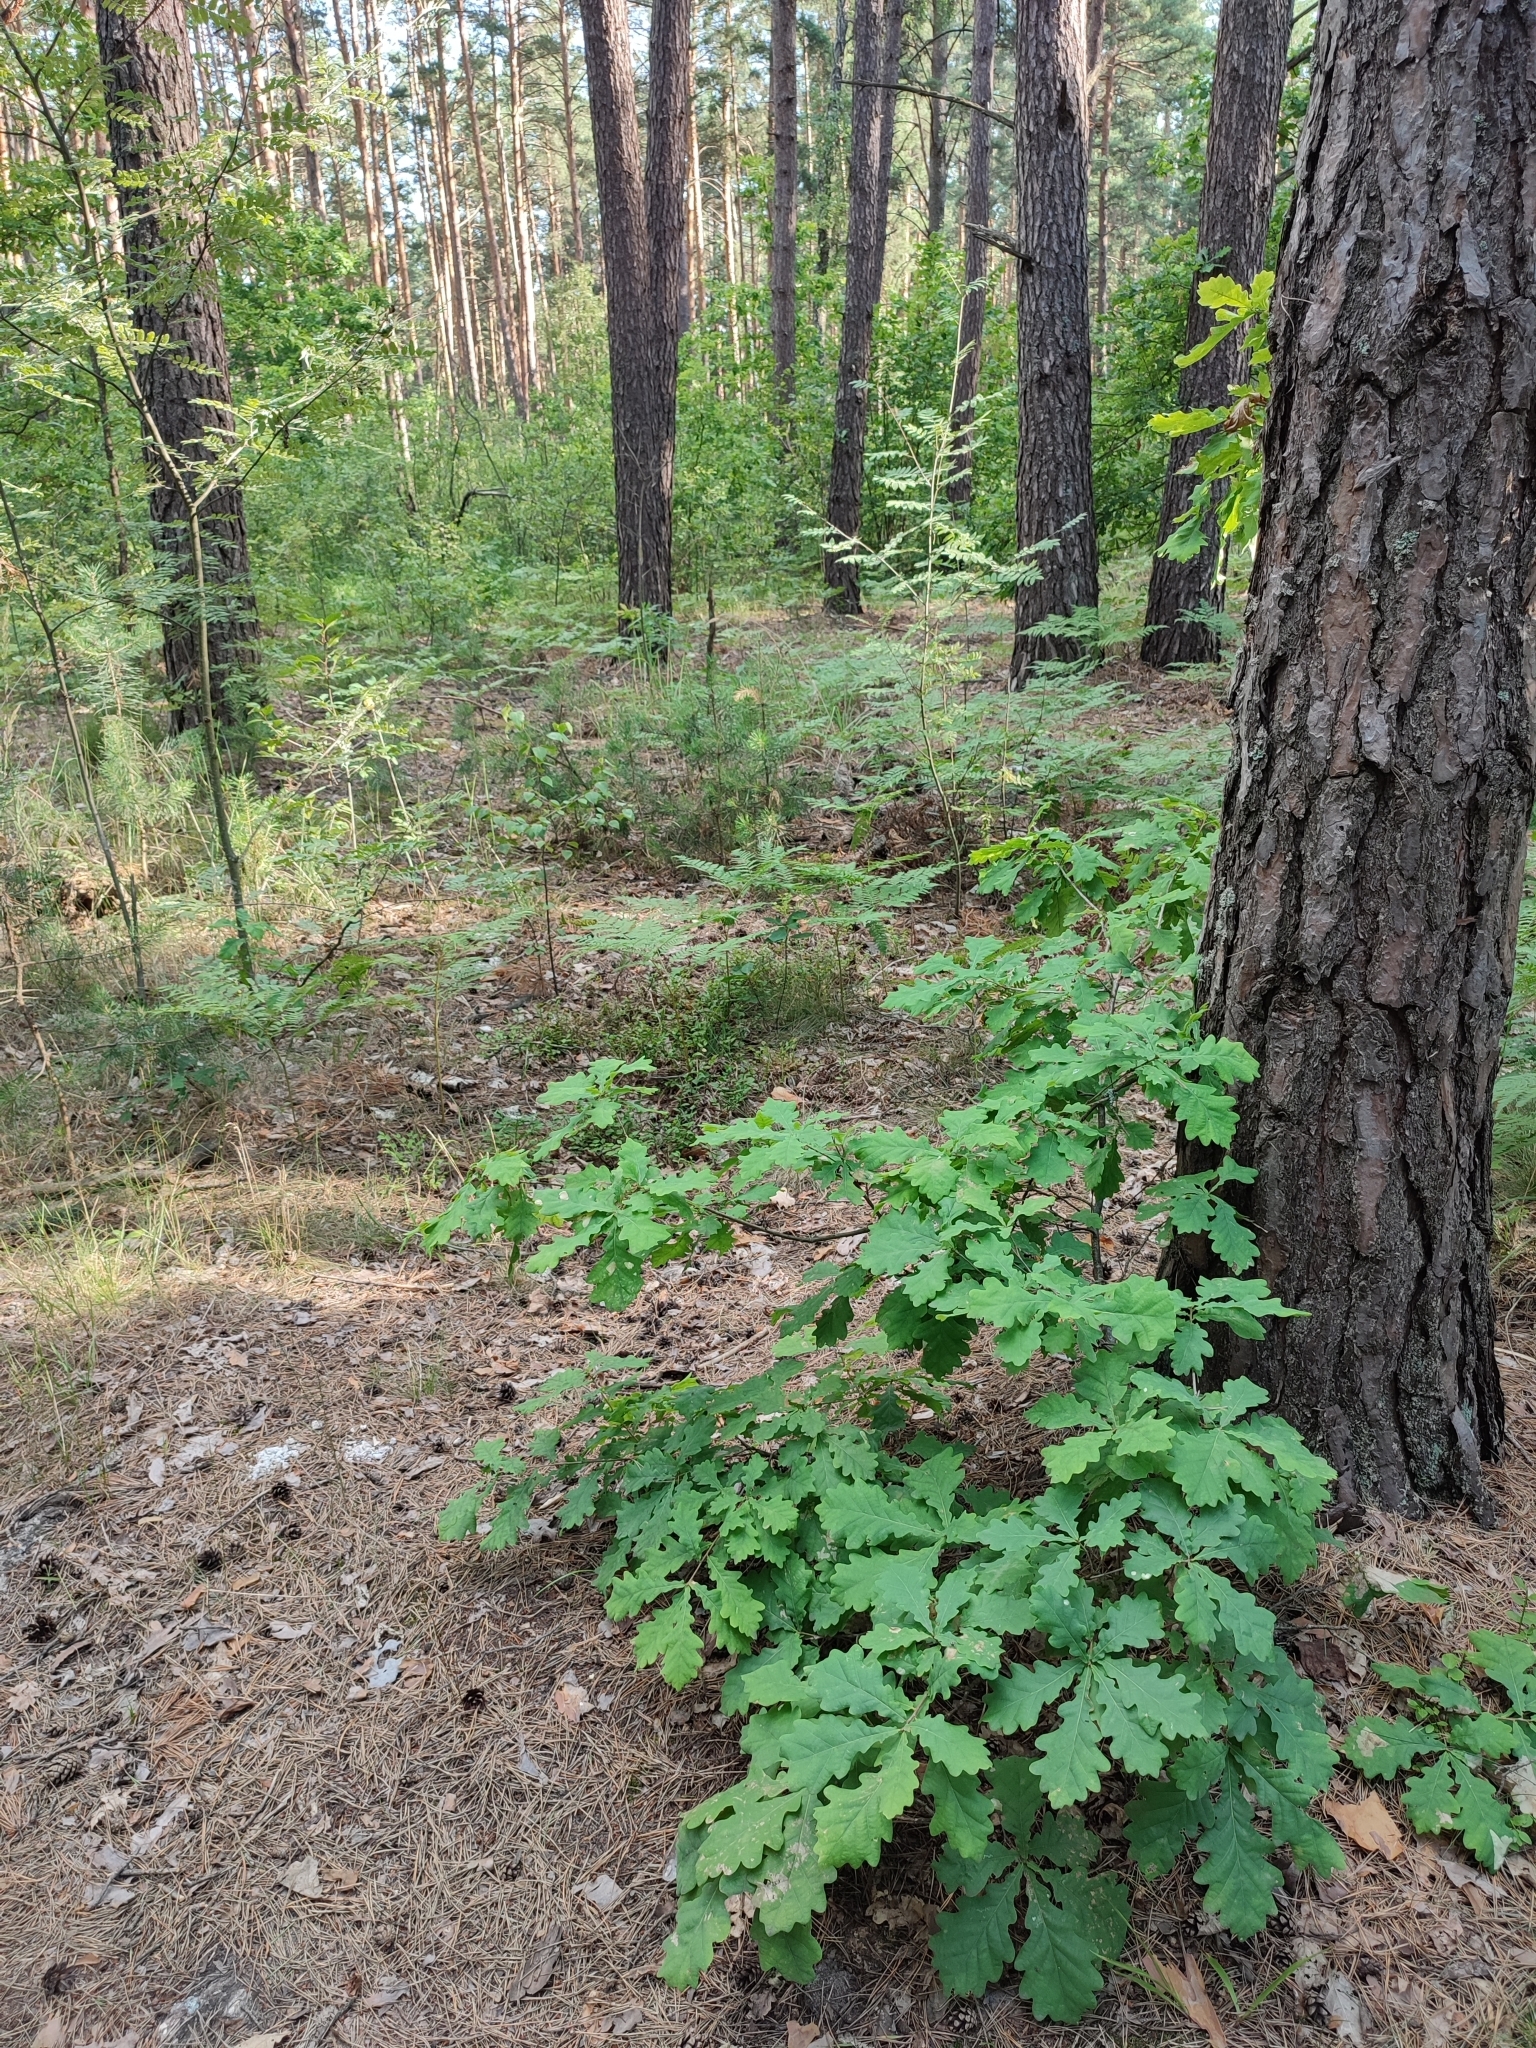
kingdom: Plantae
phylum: Tracheophyta
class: Magnoliopsida
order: Fagales
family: Fagaceae
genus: Quercus
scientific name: Quercus robur
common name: Pedunculate oak
